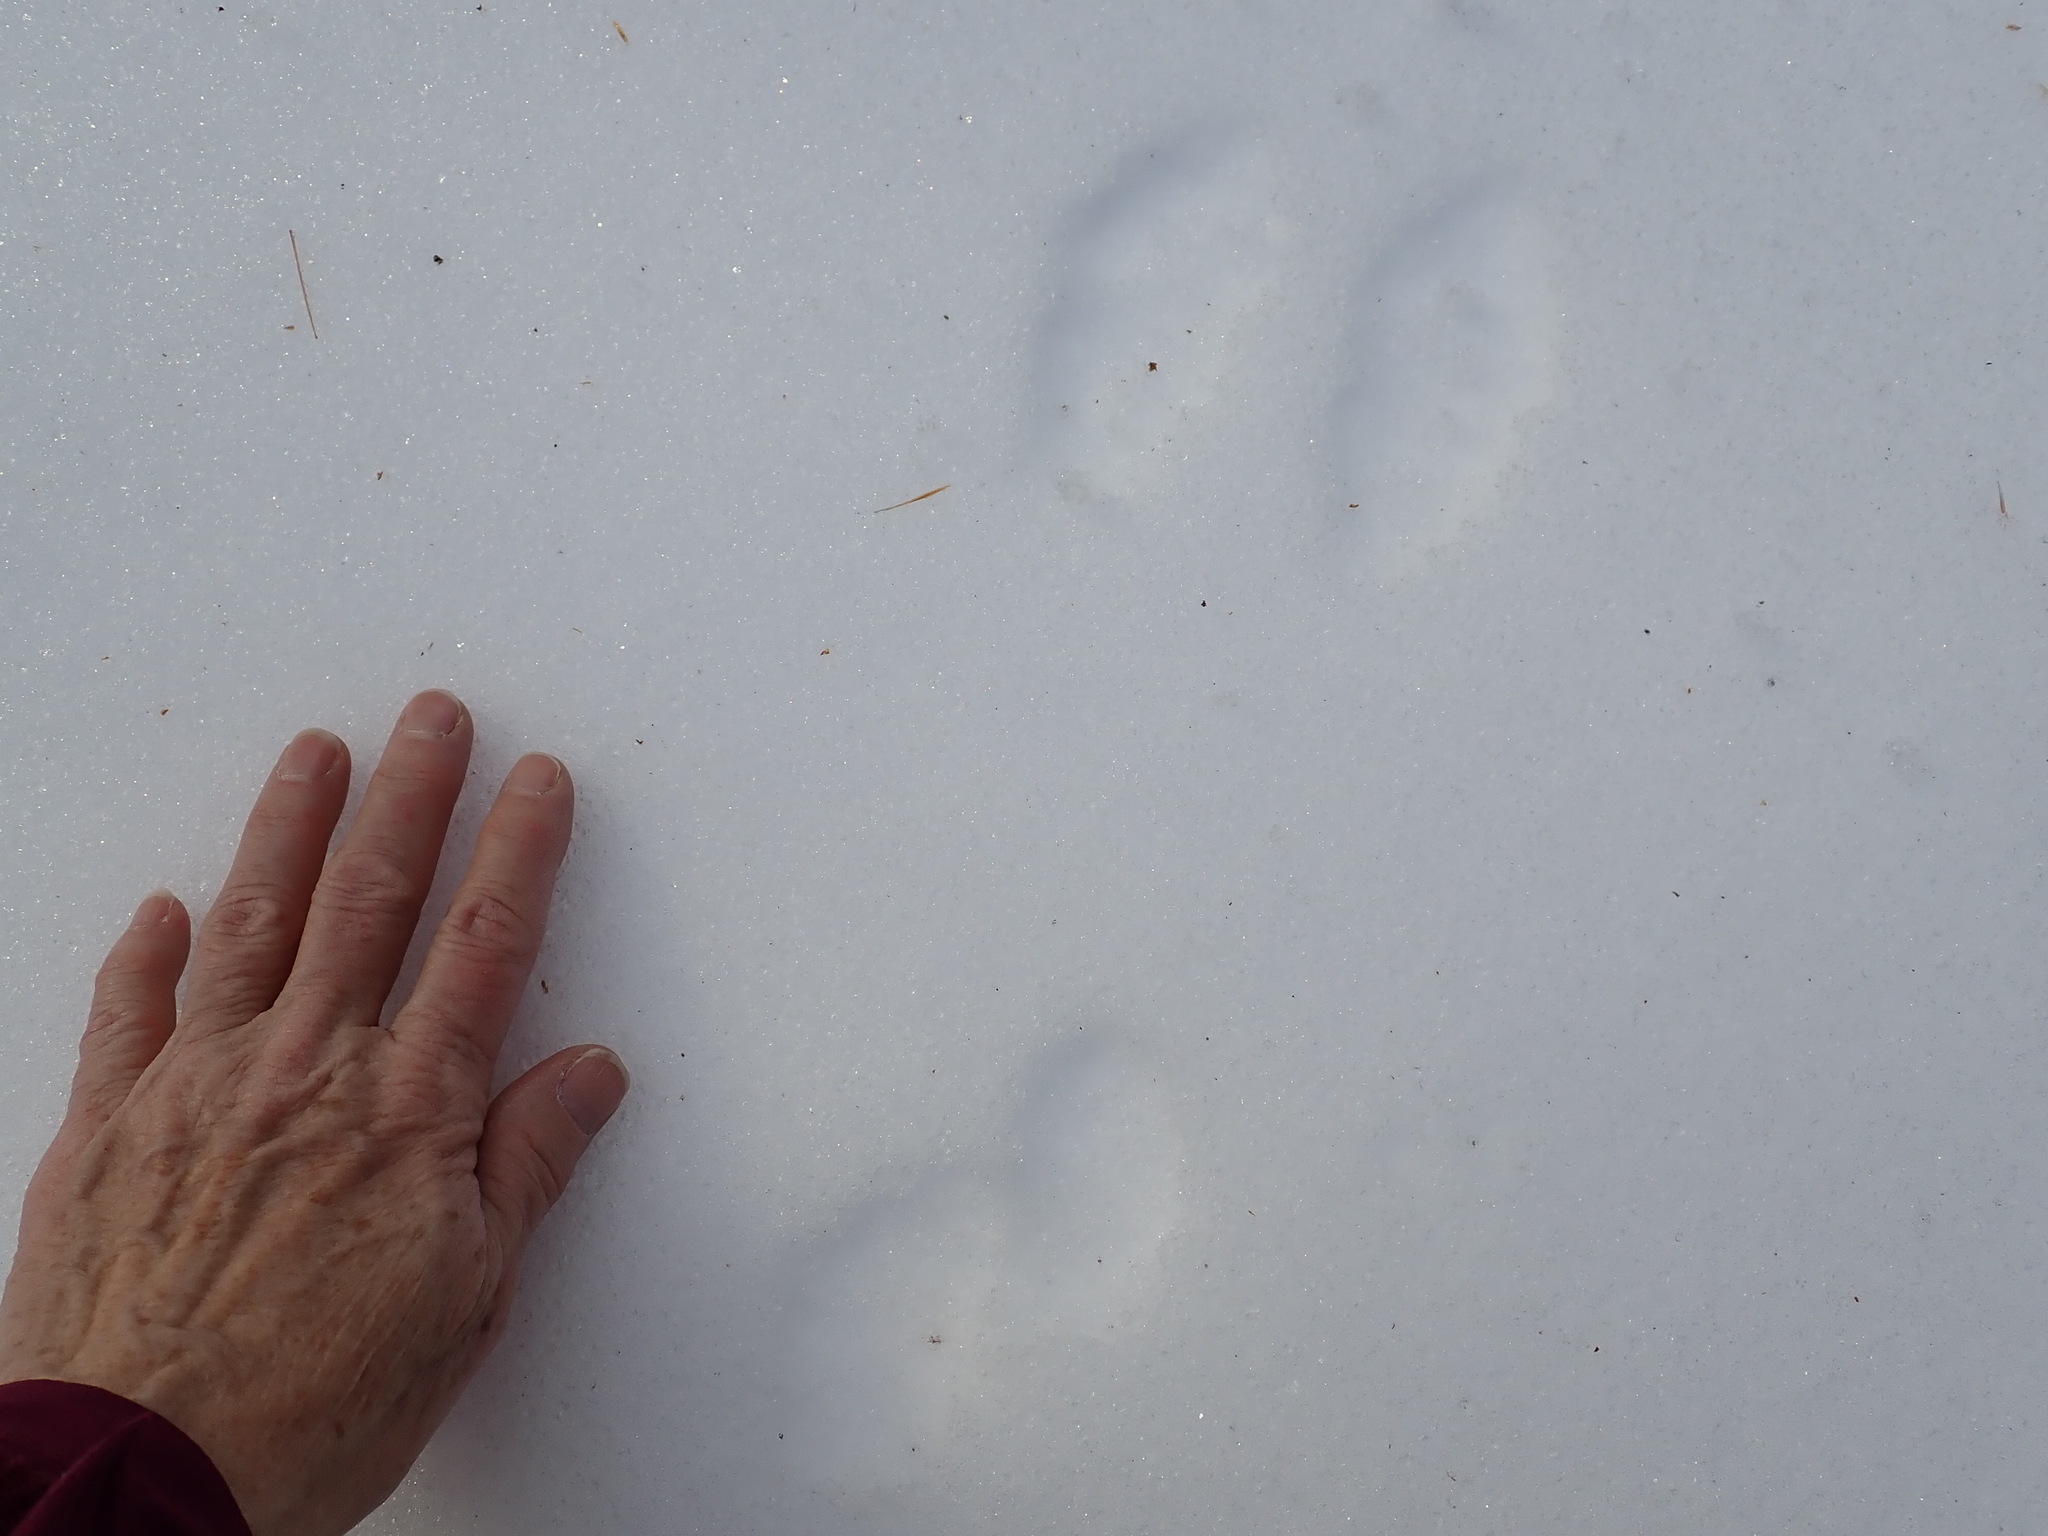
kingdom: Animalia
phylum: Chordata
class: Mammalia
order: Lagomorpha
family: Leporidae
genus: Lepus
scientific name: Lepus americanus
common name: Snowshoe hare
